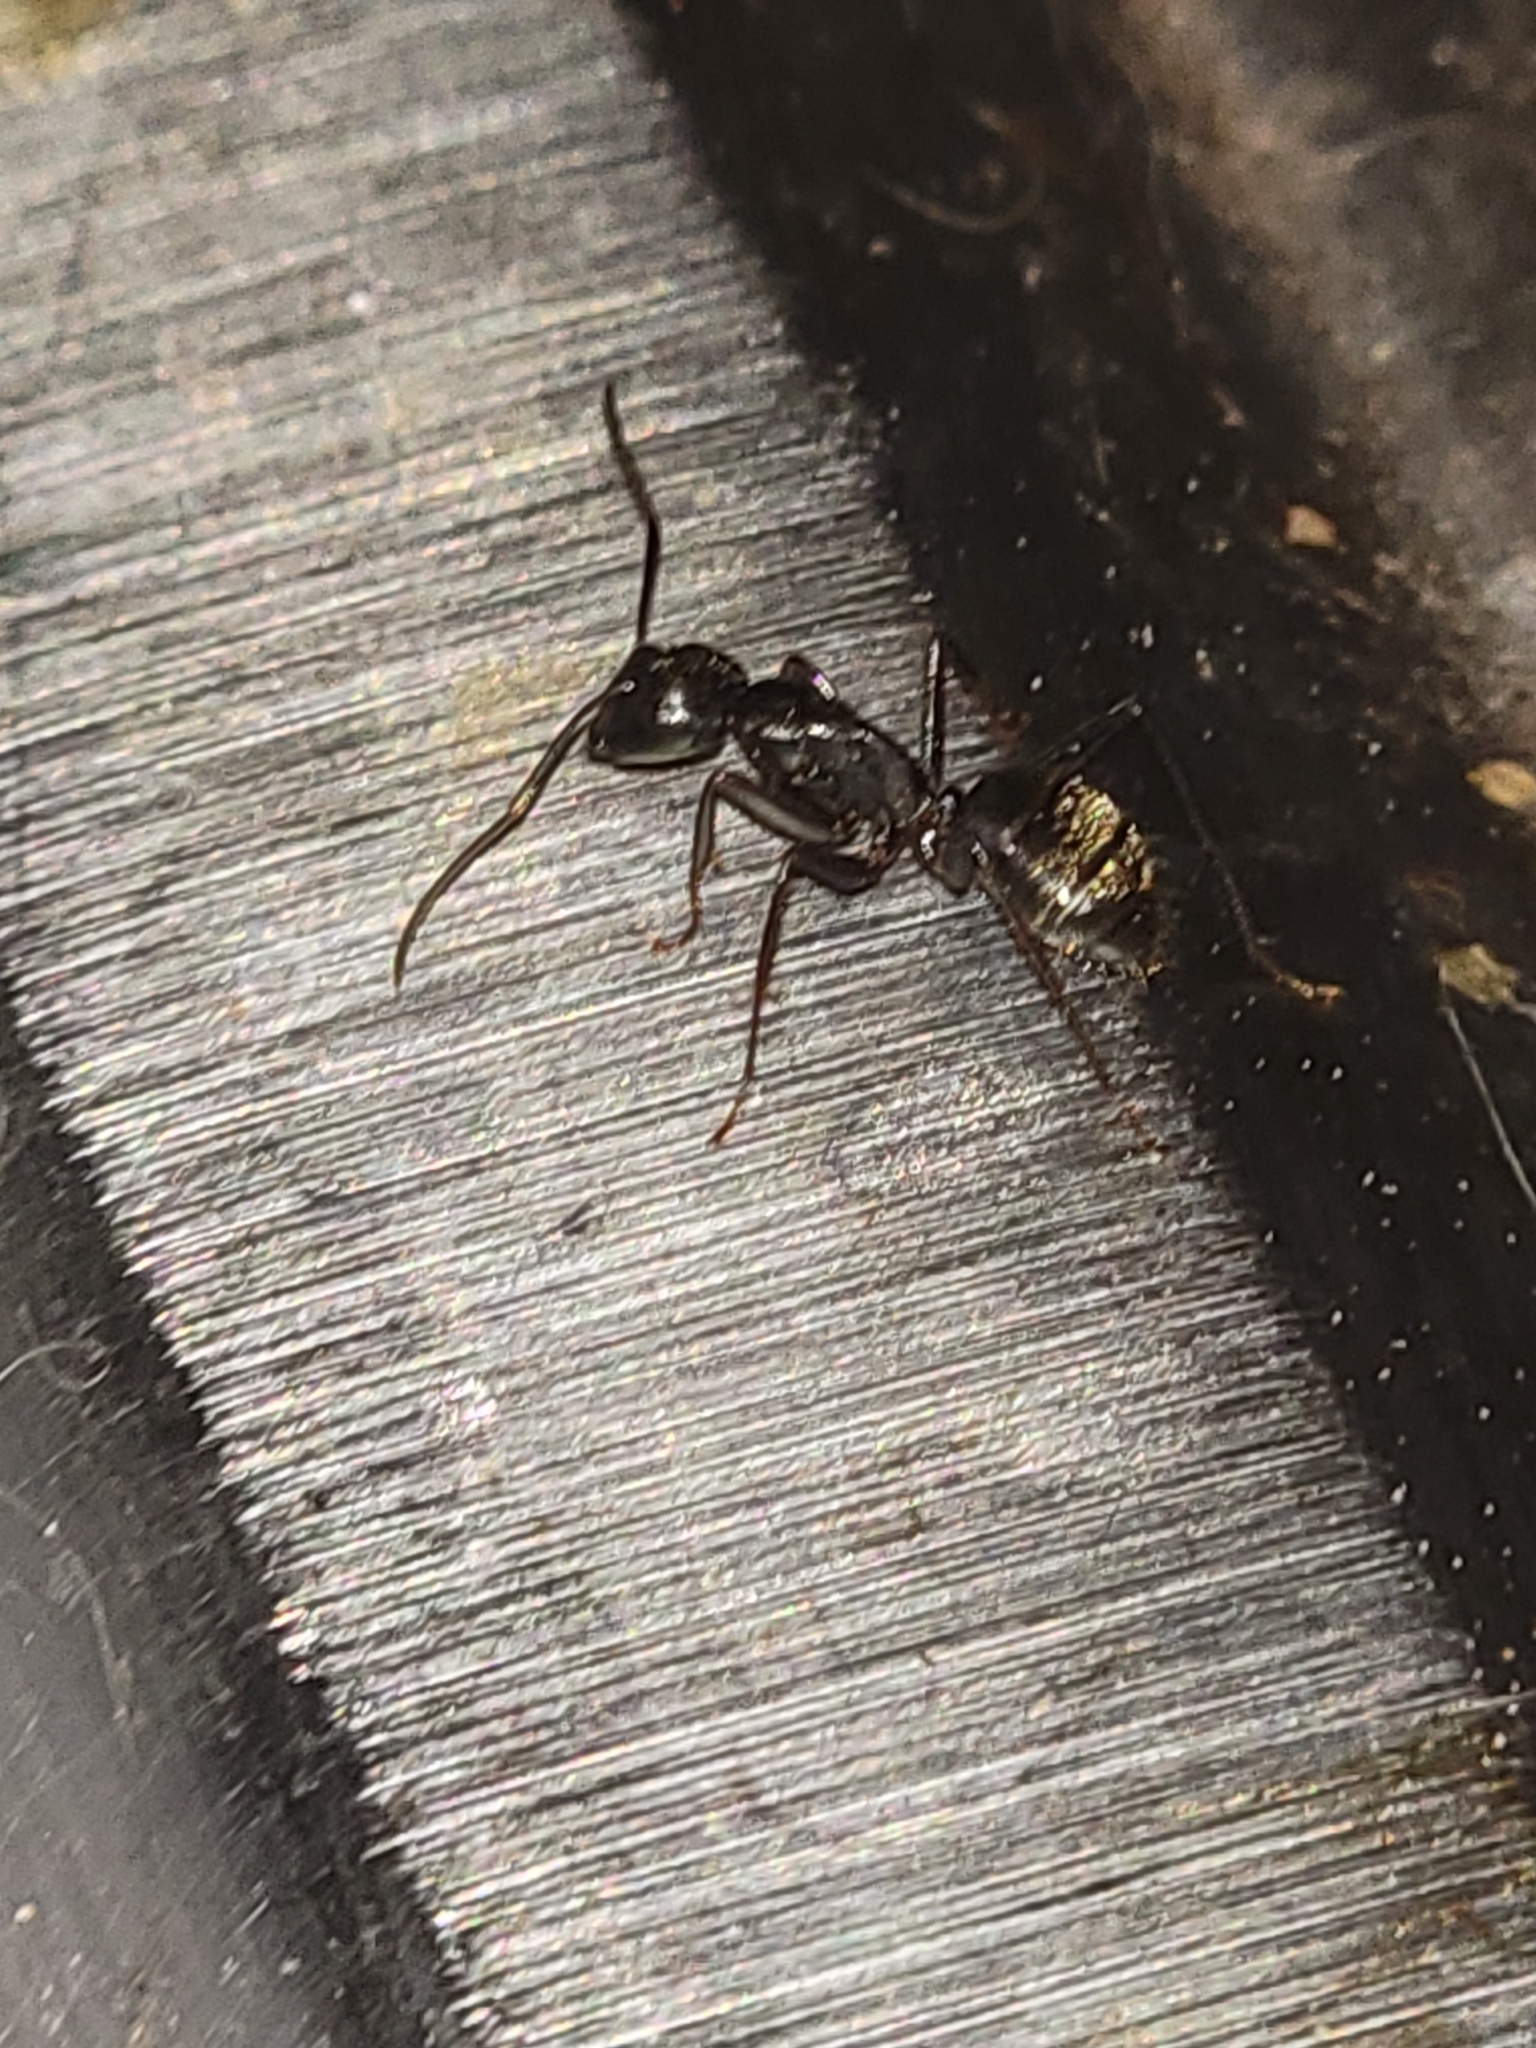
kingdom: Animalia
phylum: Arthropoda
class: Insecta
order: Hymenoptera
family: Formicidae
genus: Camponotus
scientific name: Camponotus pennsylvanicus
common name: Black carpenter ant
